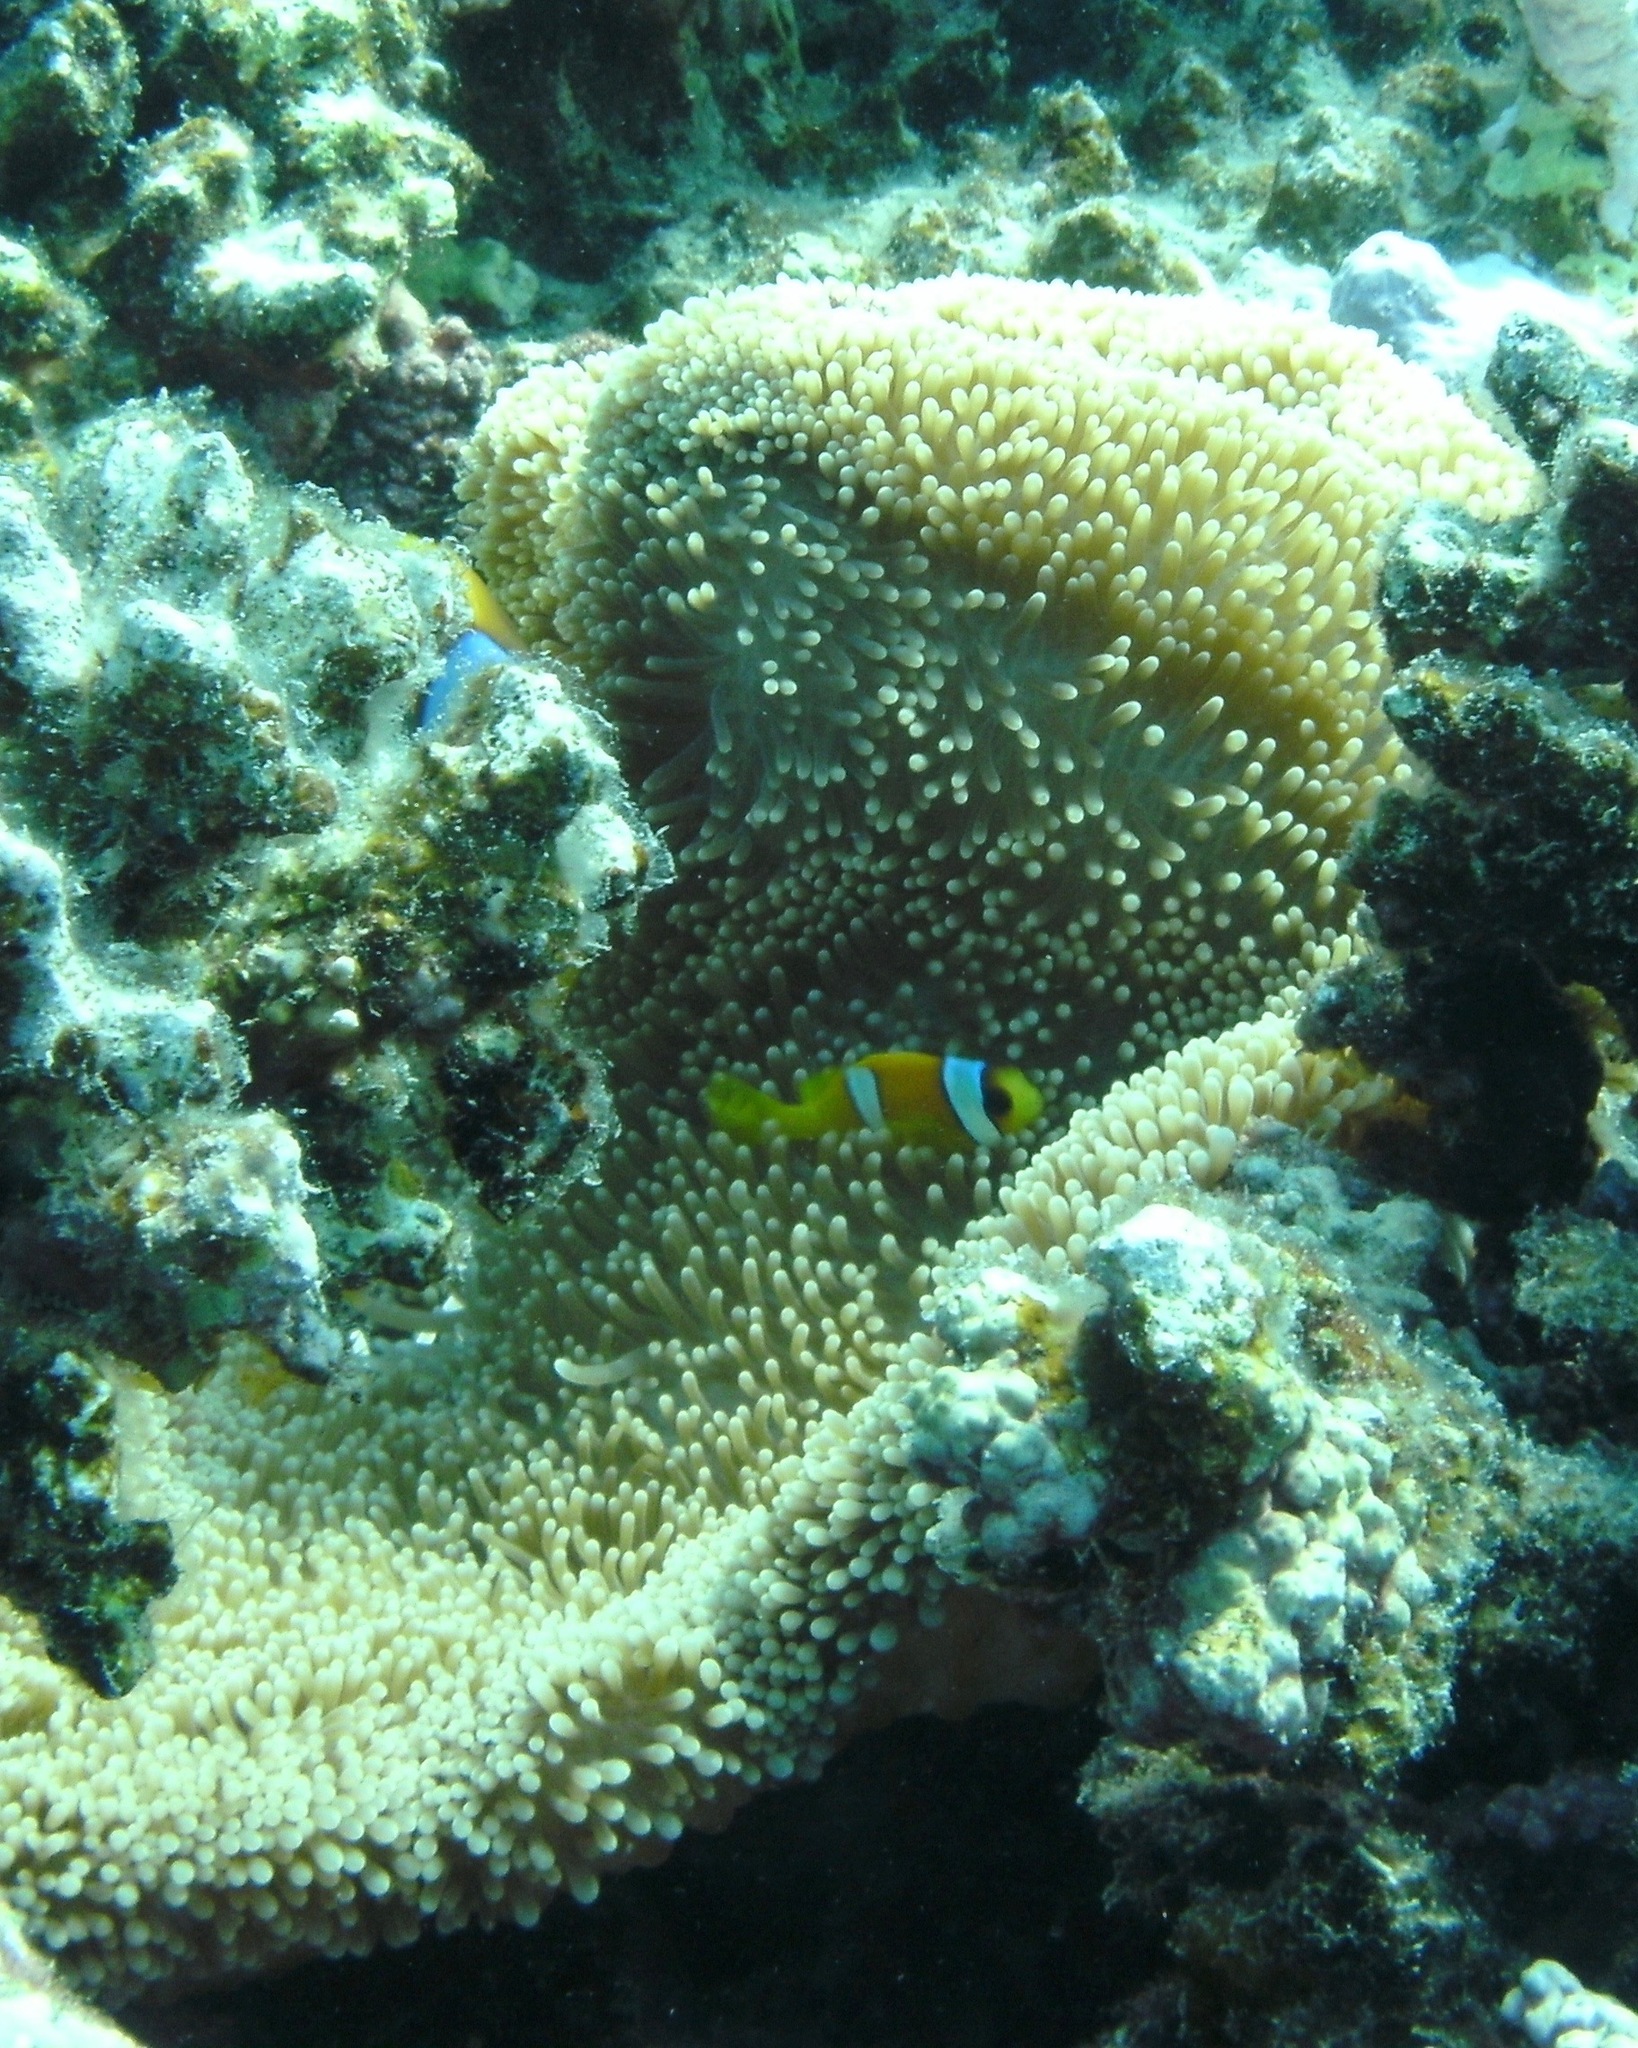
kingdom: Animalia
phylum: Cnidaria
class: Anthozoa
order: Actiniaria
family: Stichodactylidae
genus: Stichodactyla
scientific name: Stichodactyla mertensii
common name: Merten's sea anemone
